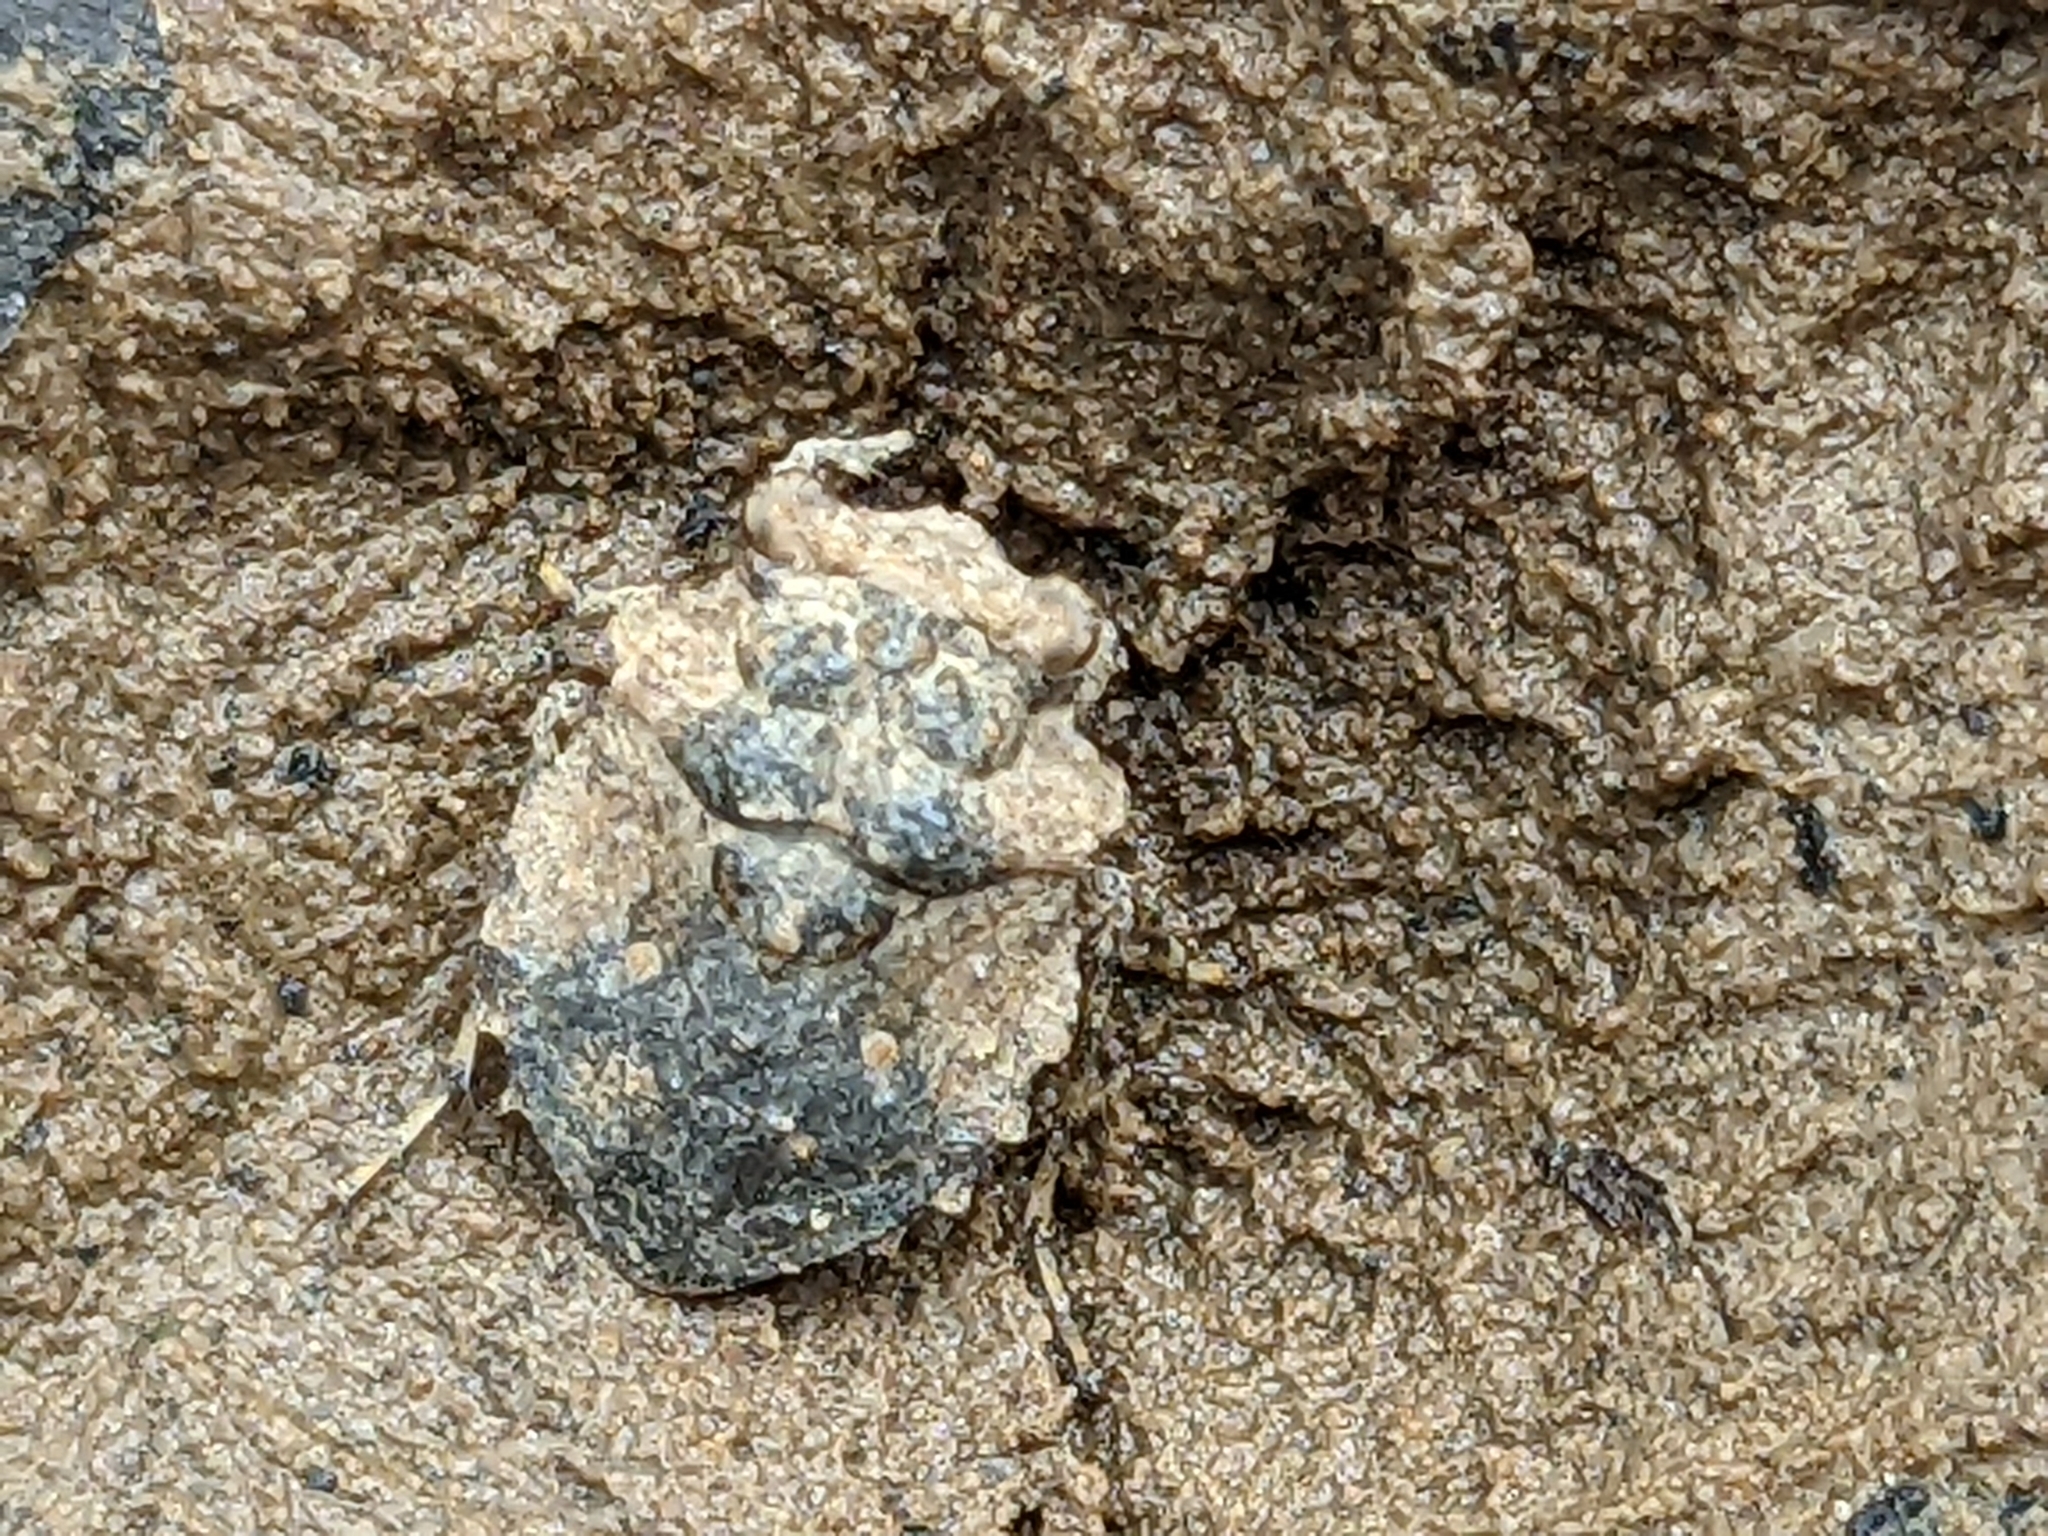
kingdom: Animalia
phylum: Arthropoda
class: Insecta
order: Hemiptera
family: Gelastocoridae
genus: Gelastocoris
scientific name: Gelastocoris oculatus
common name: Toad bug
